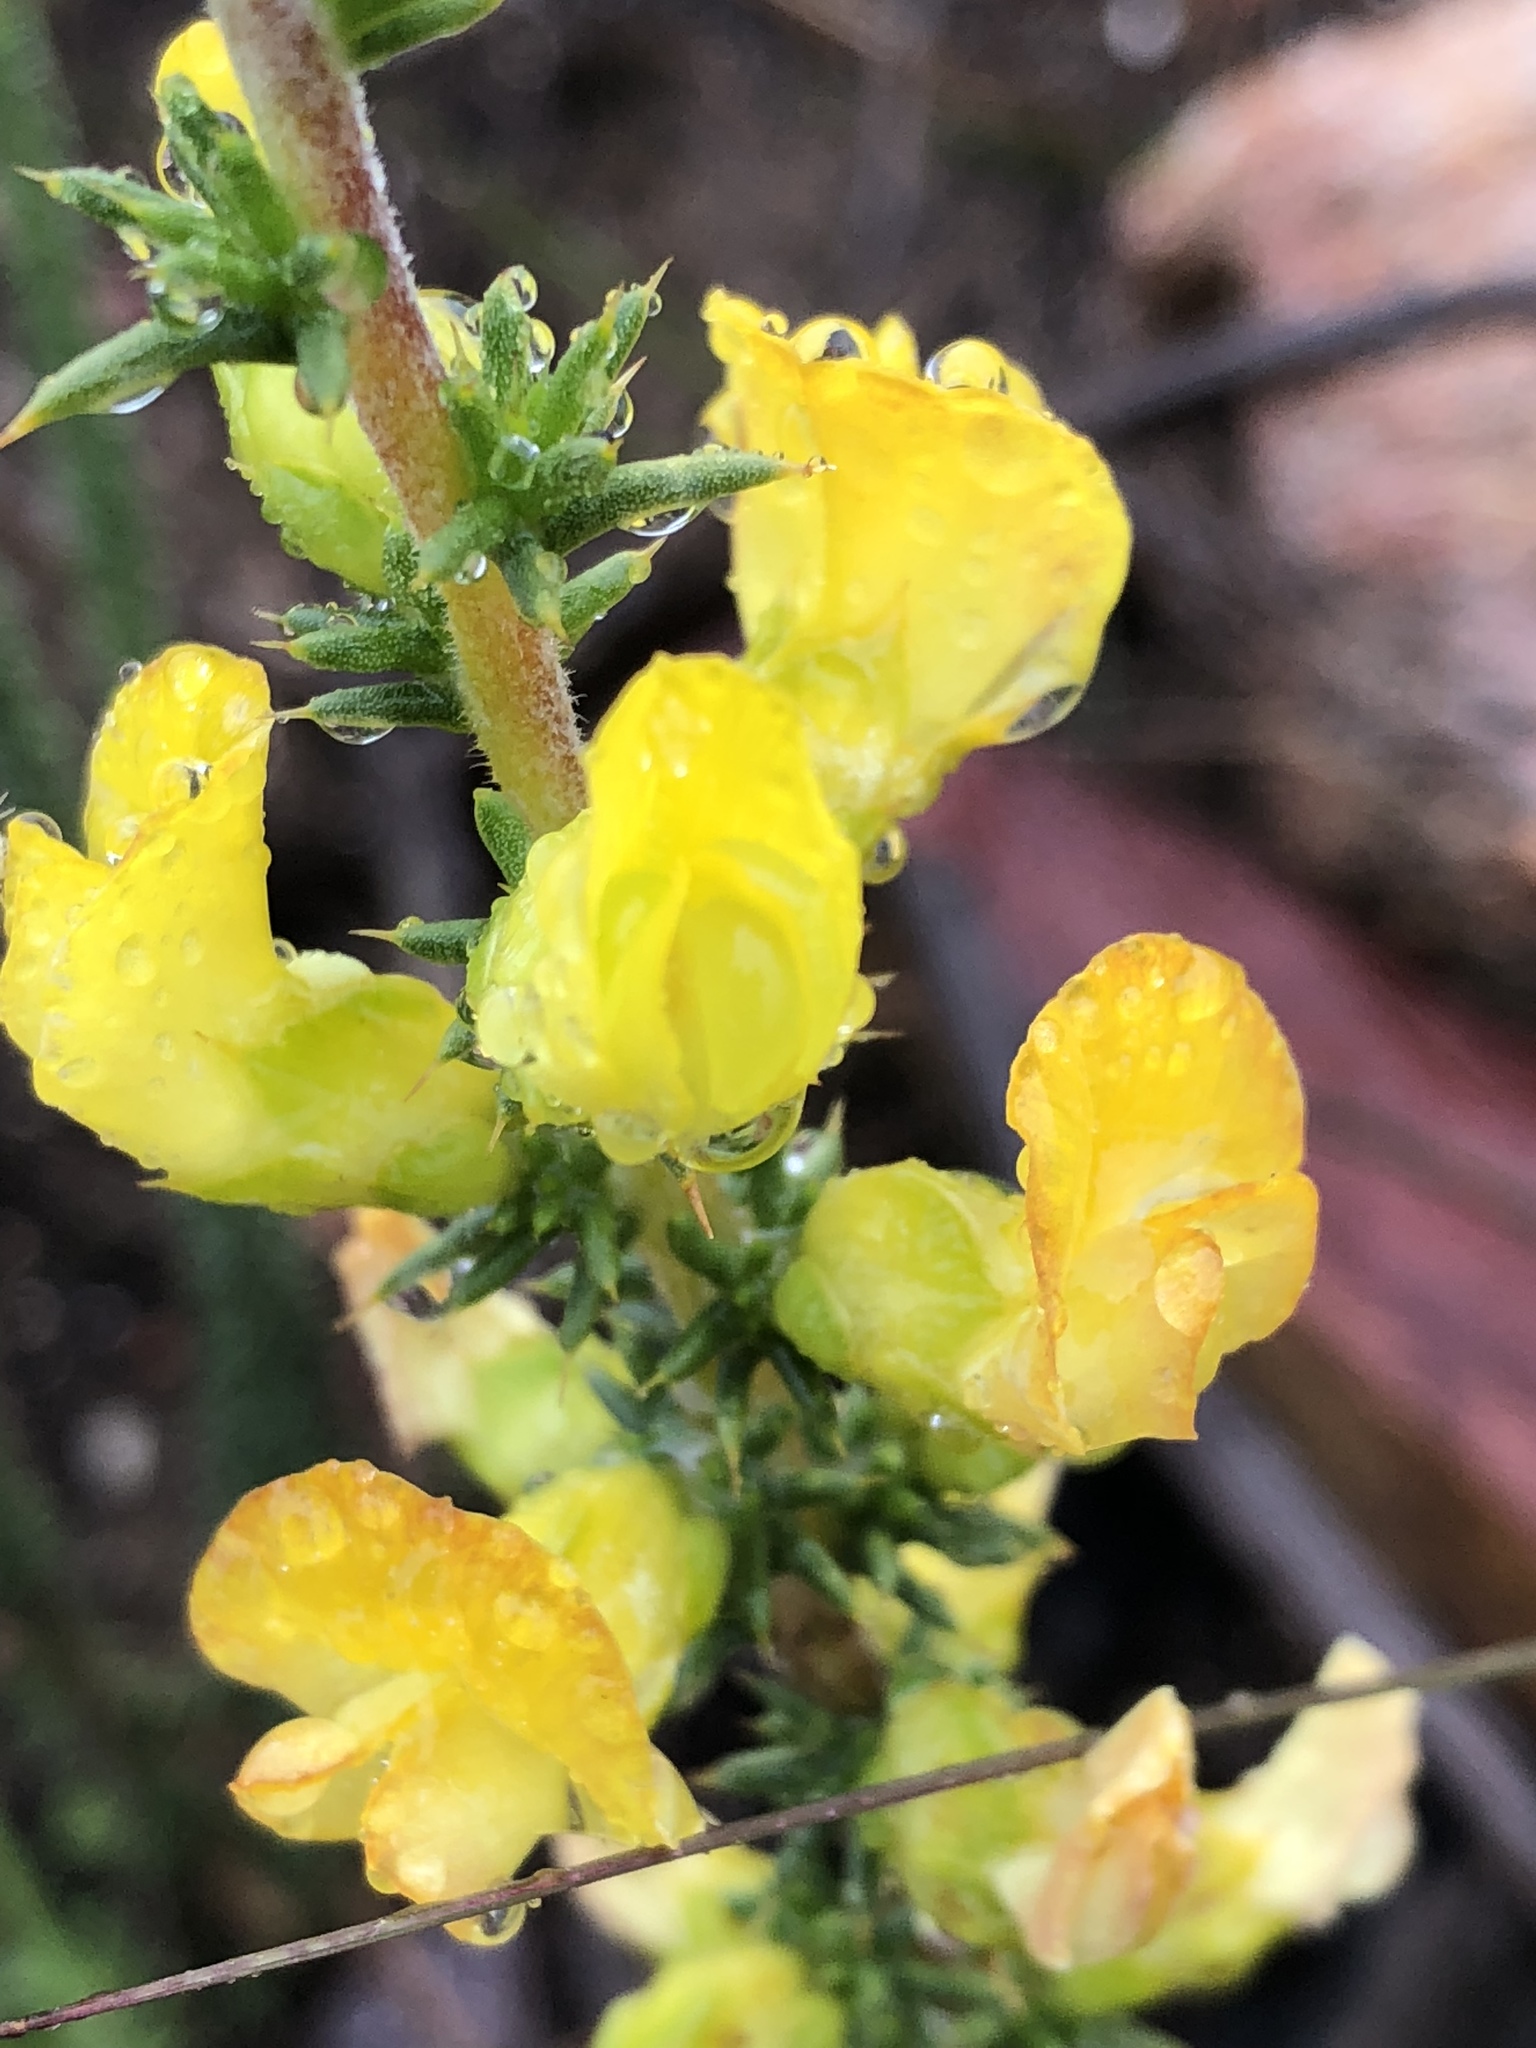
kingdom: Plantae
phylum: Tracheophyta
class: Magnoliopsida
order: Fabales
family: Fabaceae
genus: Aspalathus
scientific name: Aspalathus aciphylla
